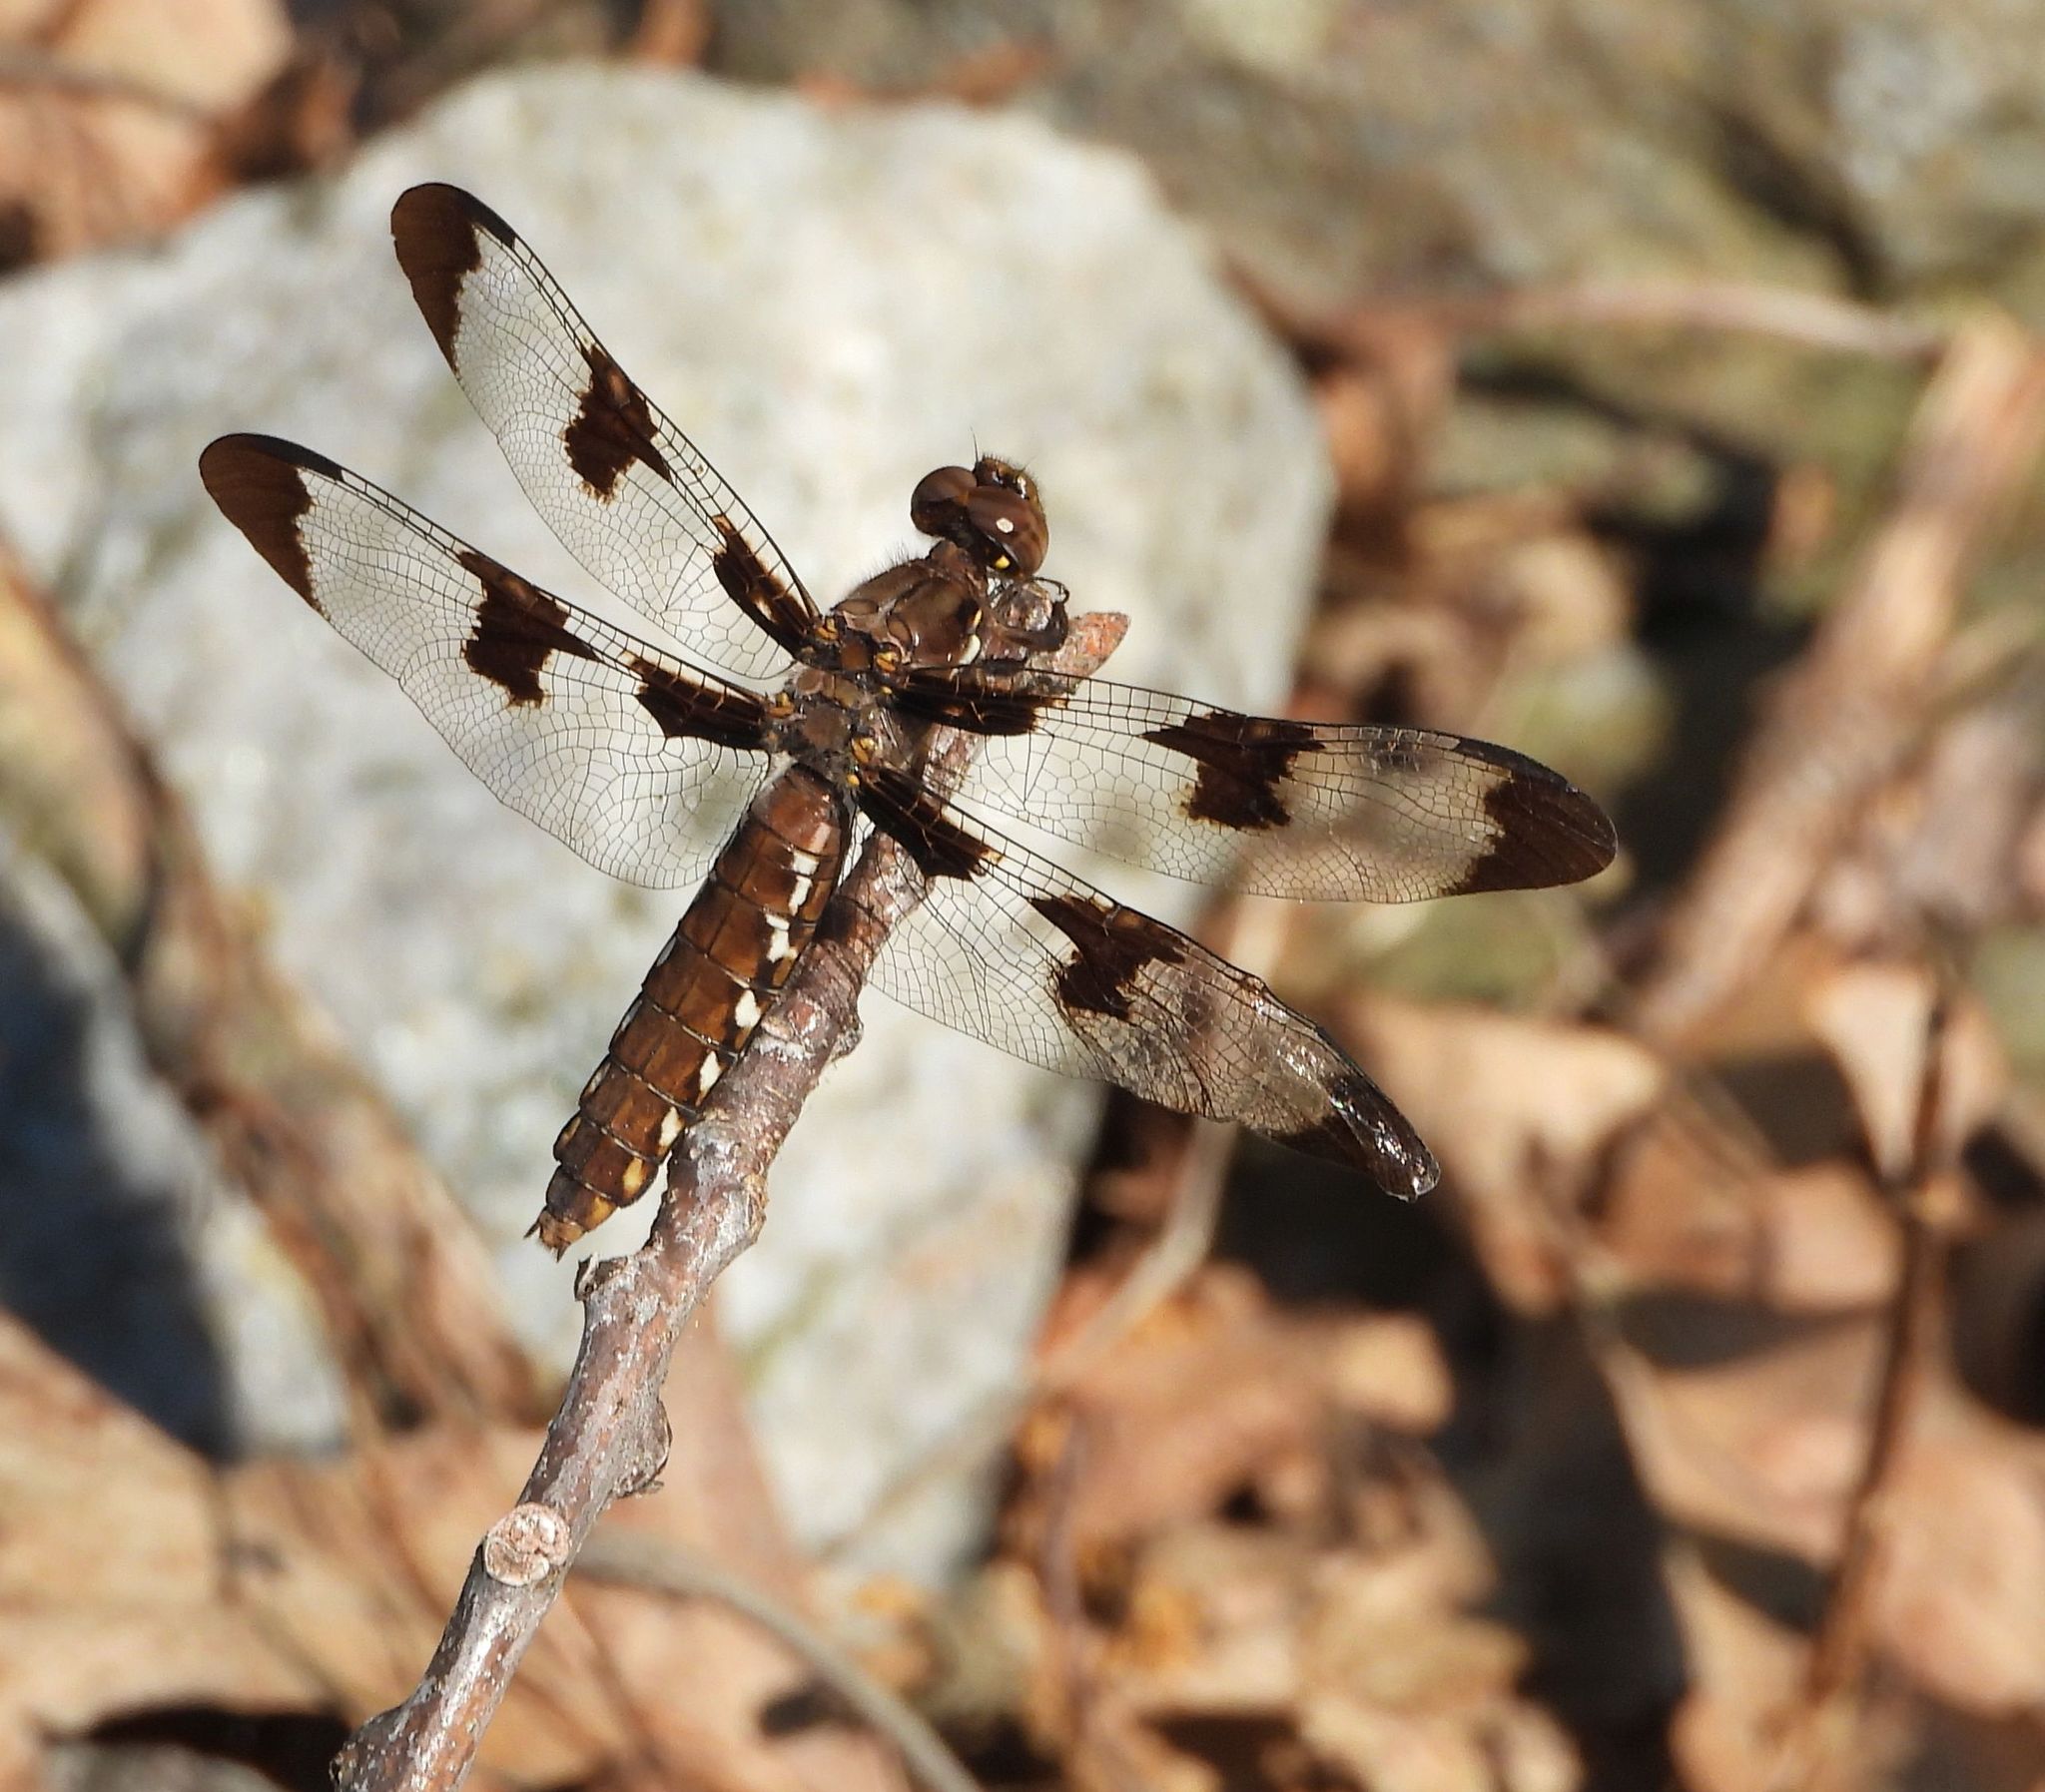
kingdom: Animalia
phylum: Arthropoda
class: Insecta
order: Odonata
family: Libellulidae
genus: Plathemis
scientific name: Plathemis lydia
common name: Common whitetail
